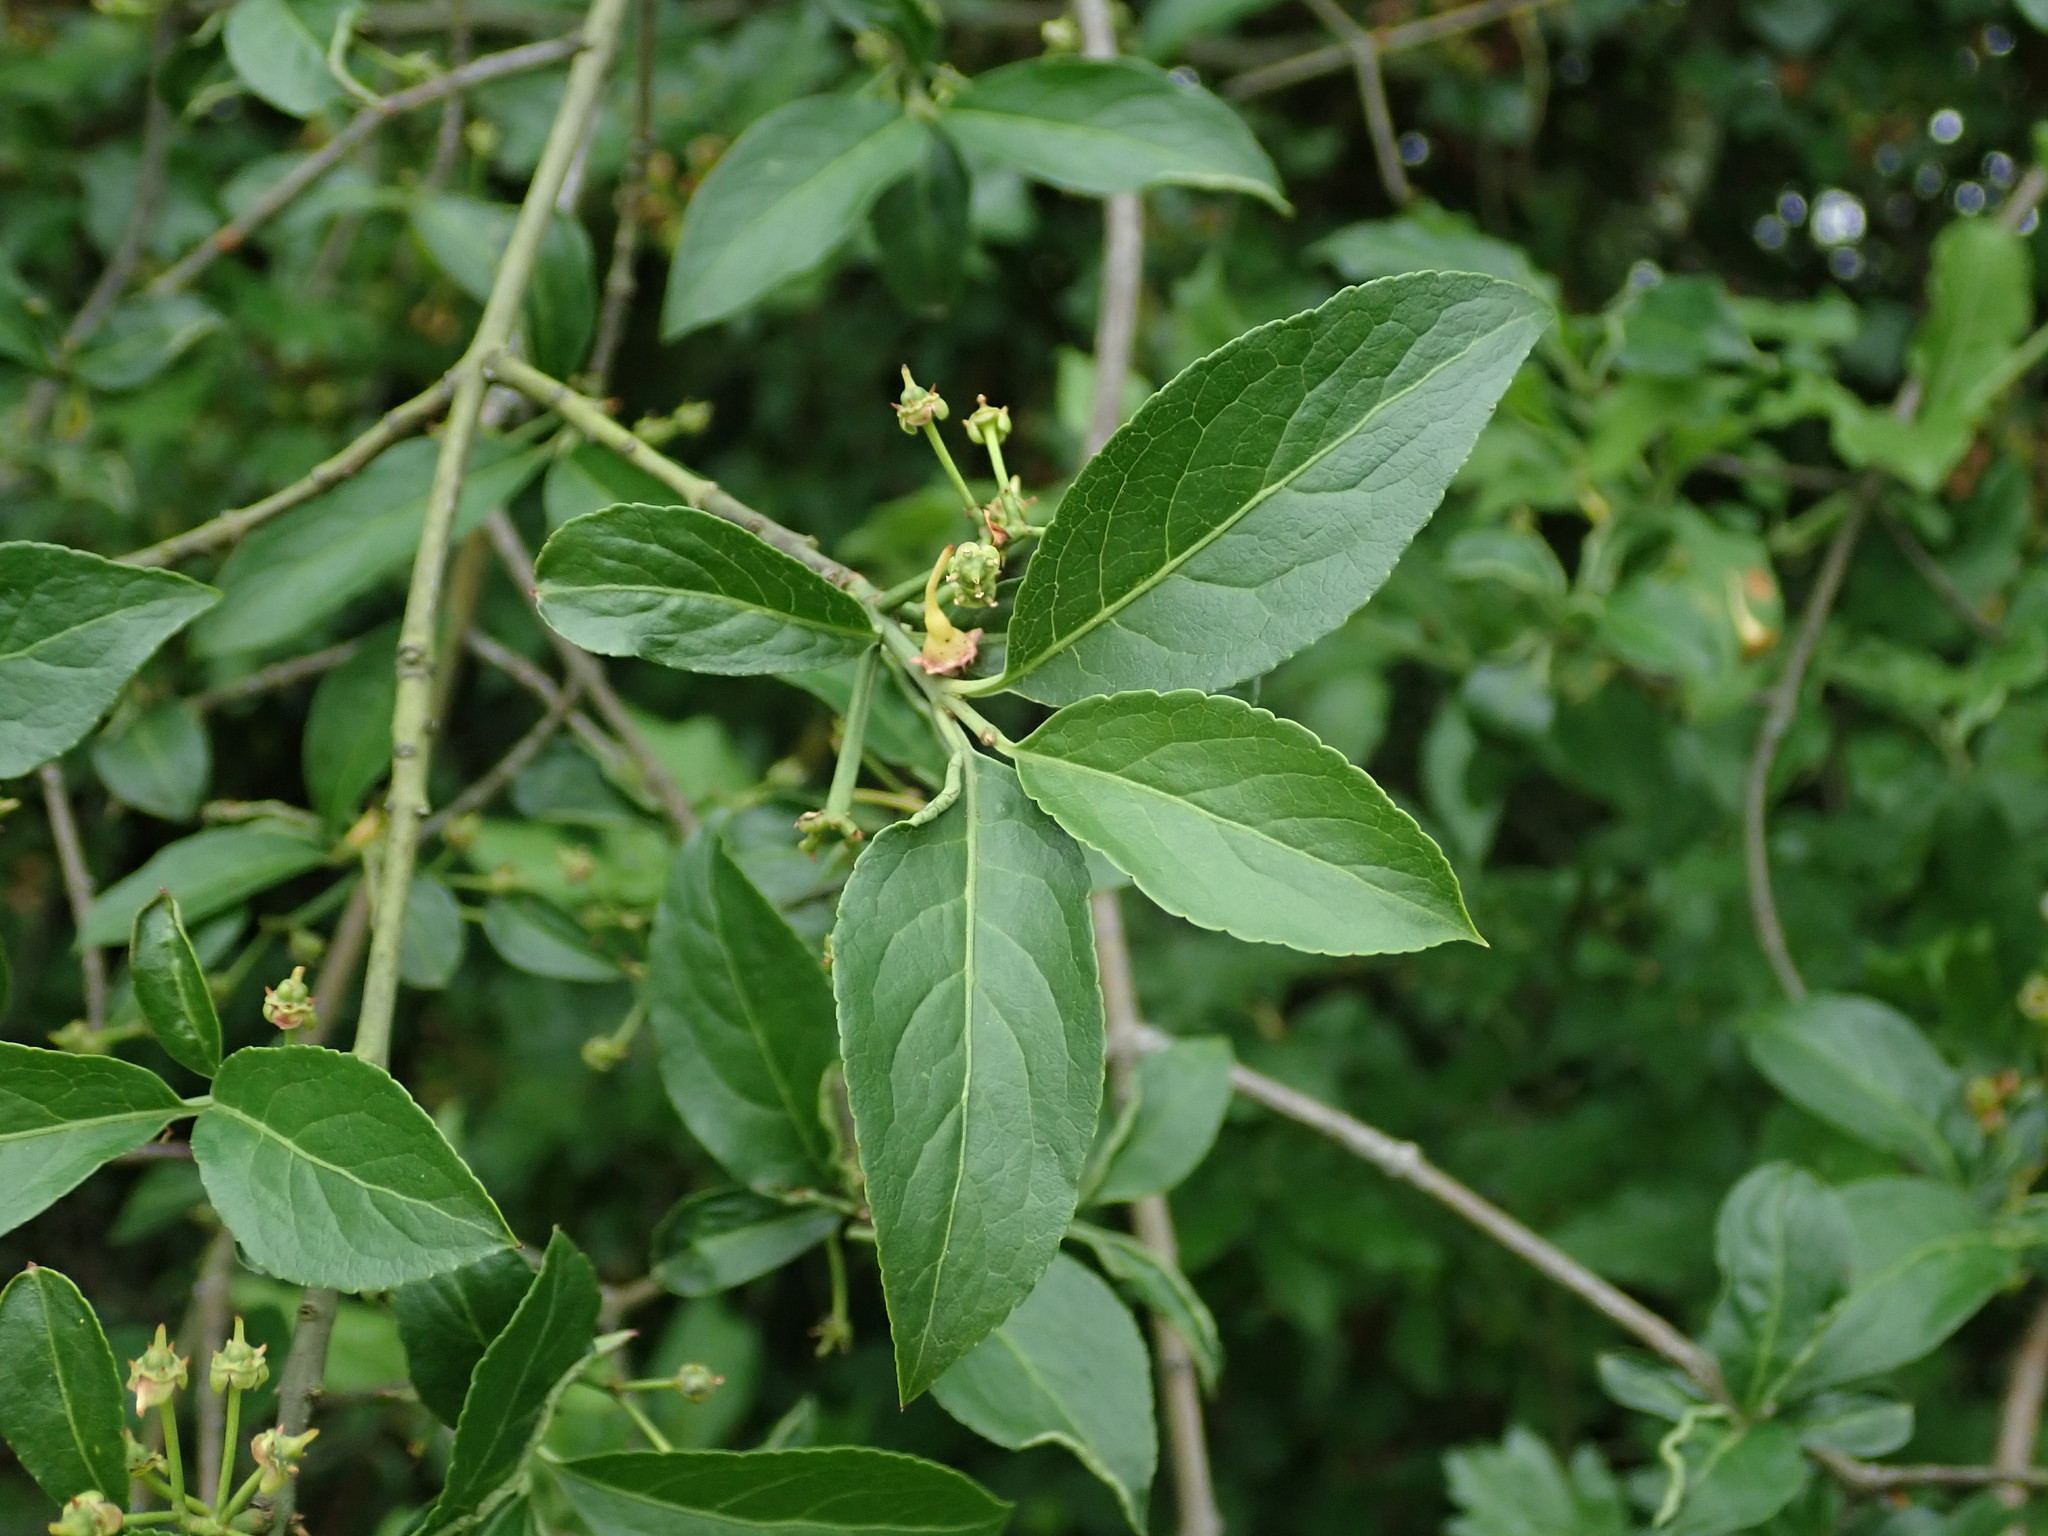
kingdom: Plantae
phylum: Tracheophyta
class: Magnoliopsida
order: Celastrales
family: Celastraceae
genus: Euonymus
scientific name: Euonymus europaeus
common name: Spindle
